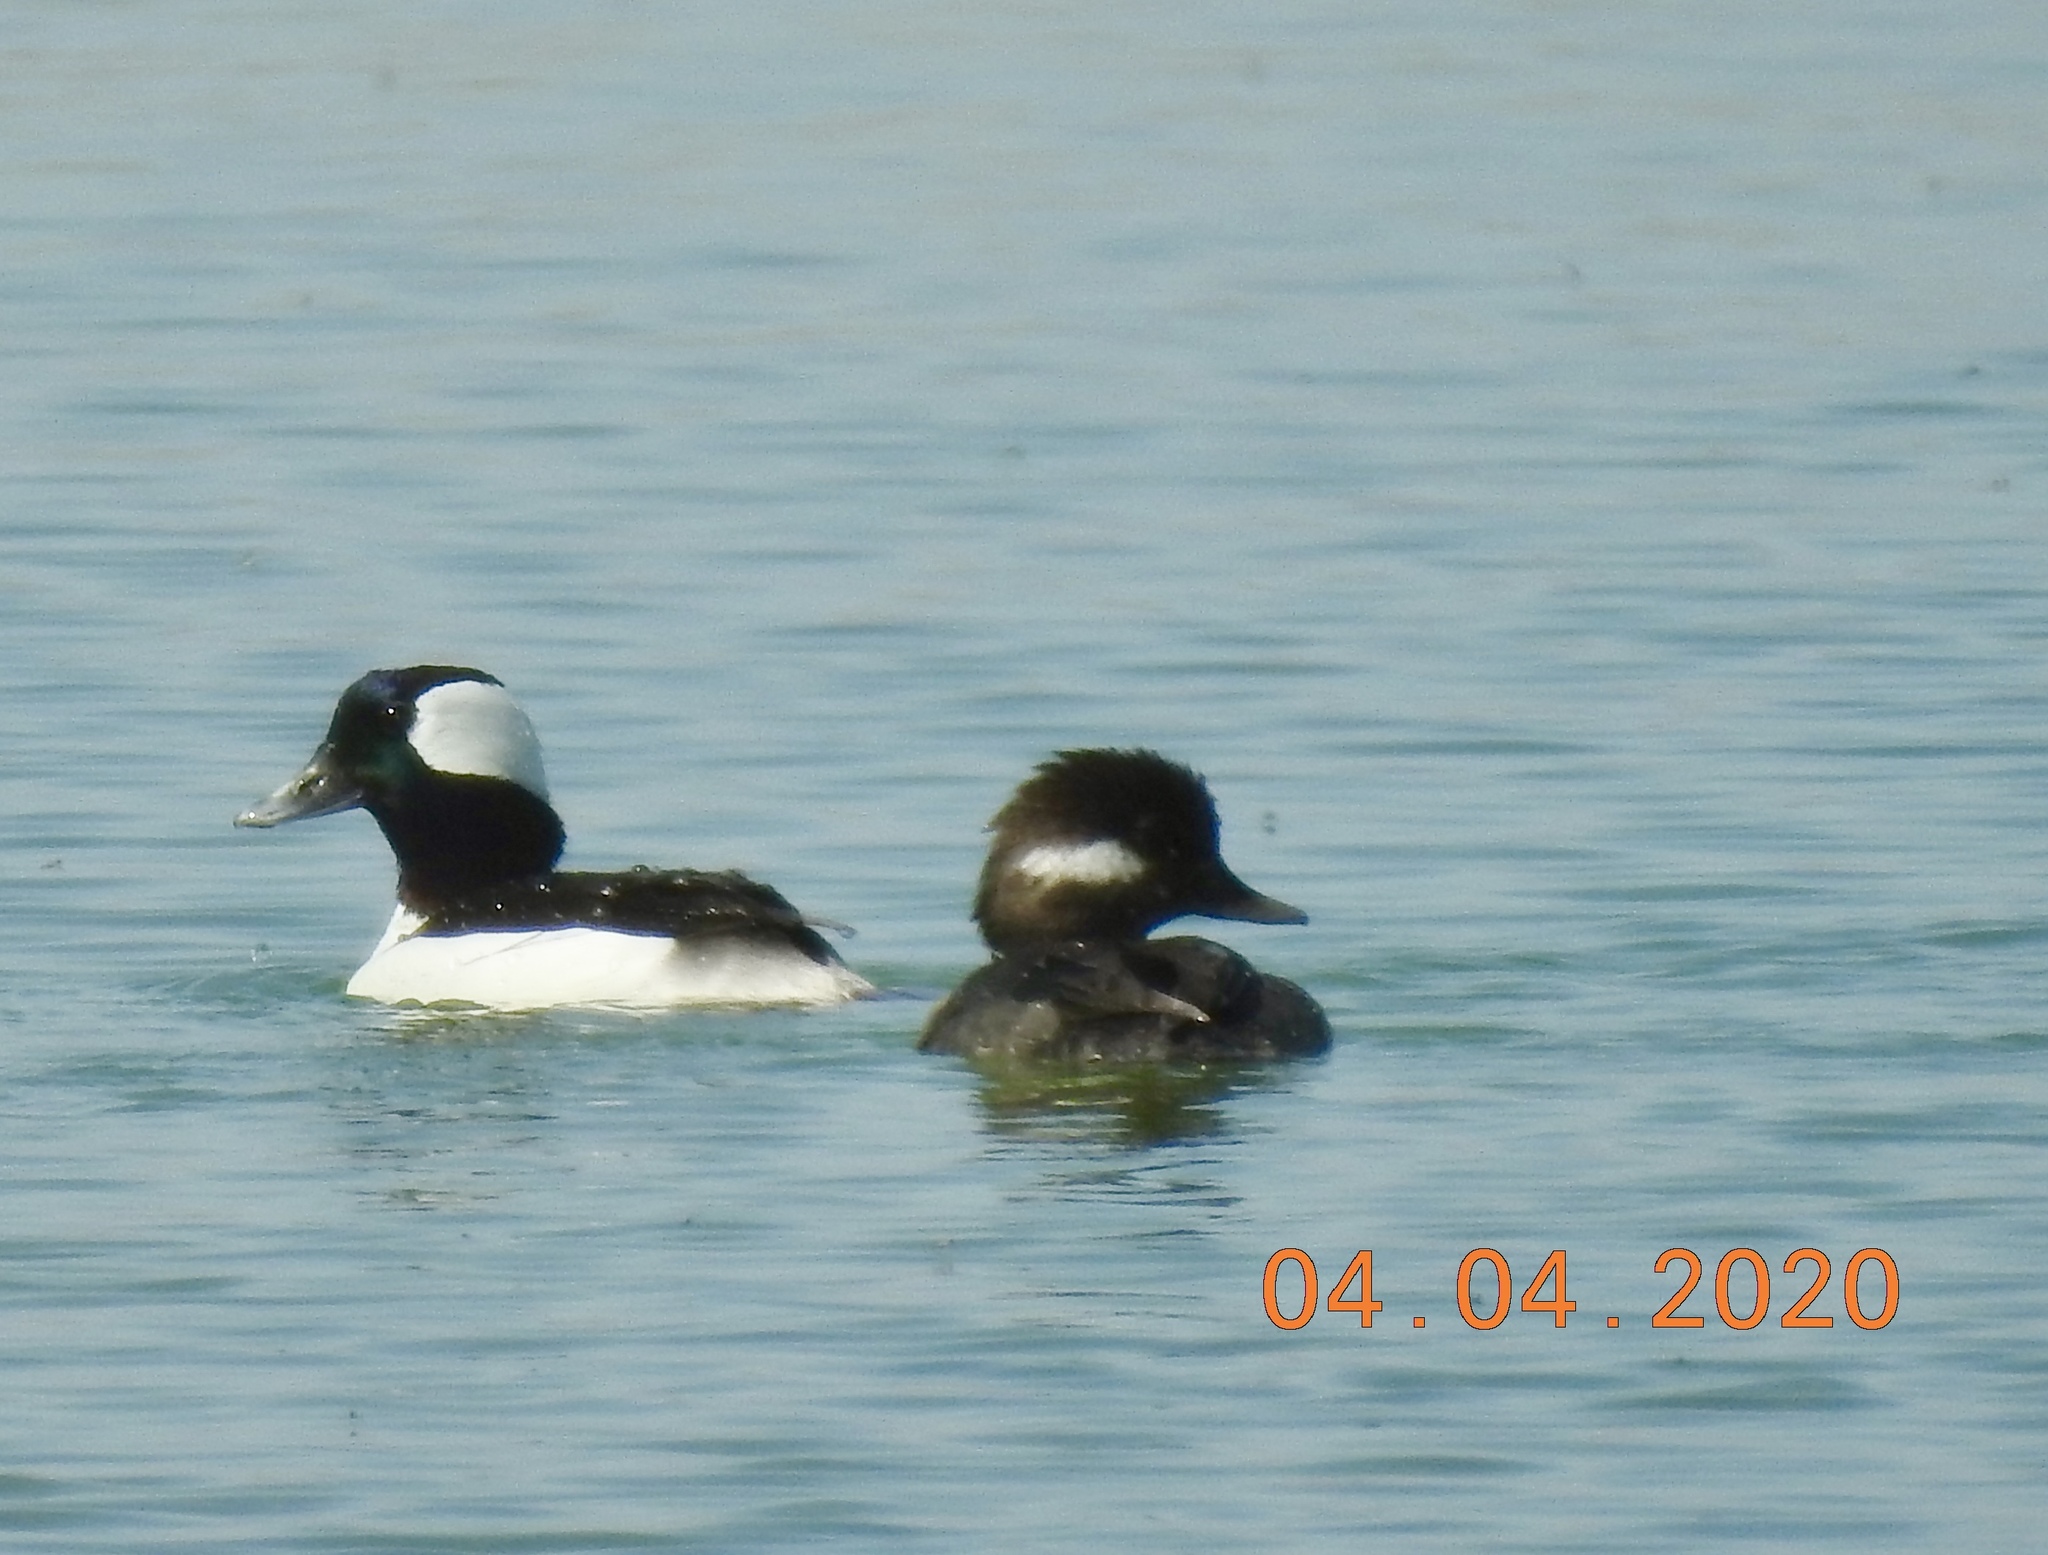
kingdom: Animalia
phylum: Chordata
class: Aves
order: Anseriformes
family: Anatidae
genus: Bucephala
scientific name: Bucephala albeola
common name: Bufflehead
